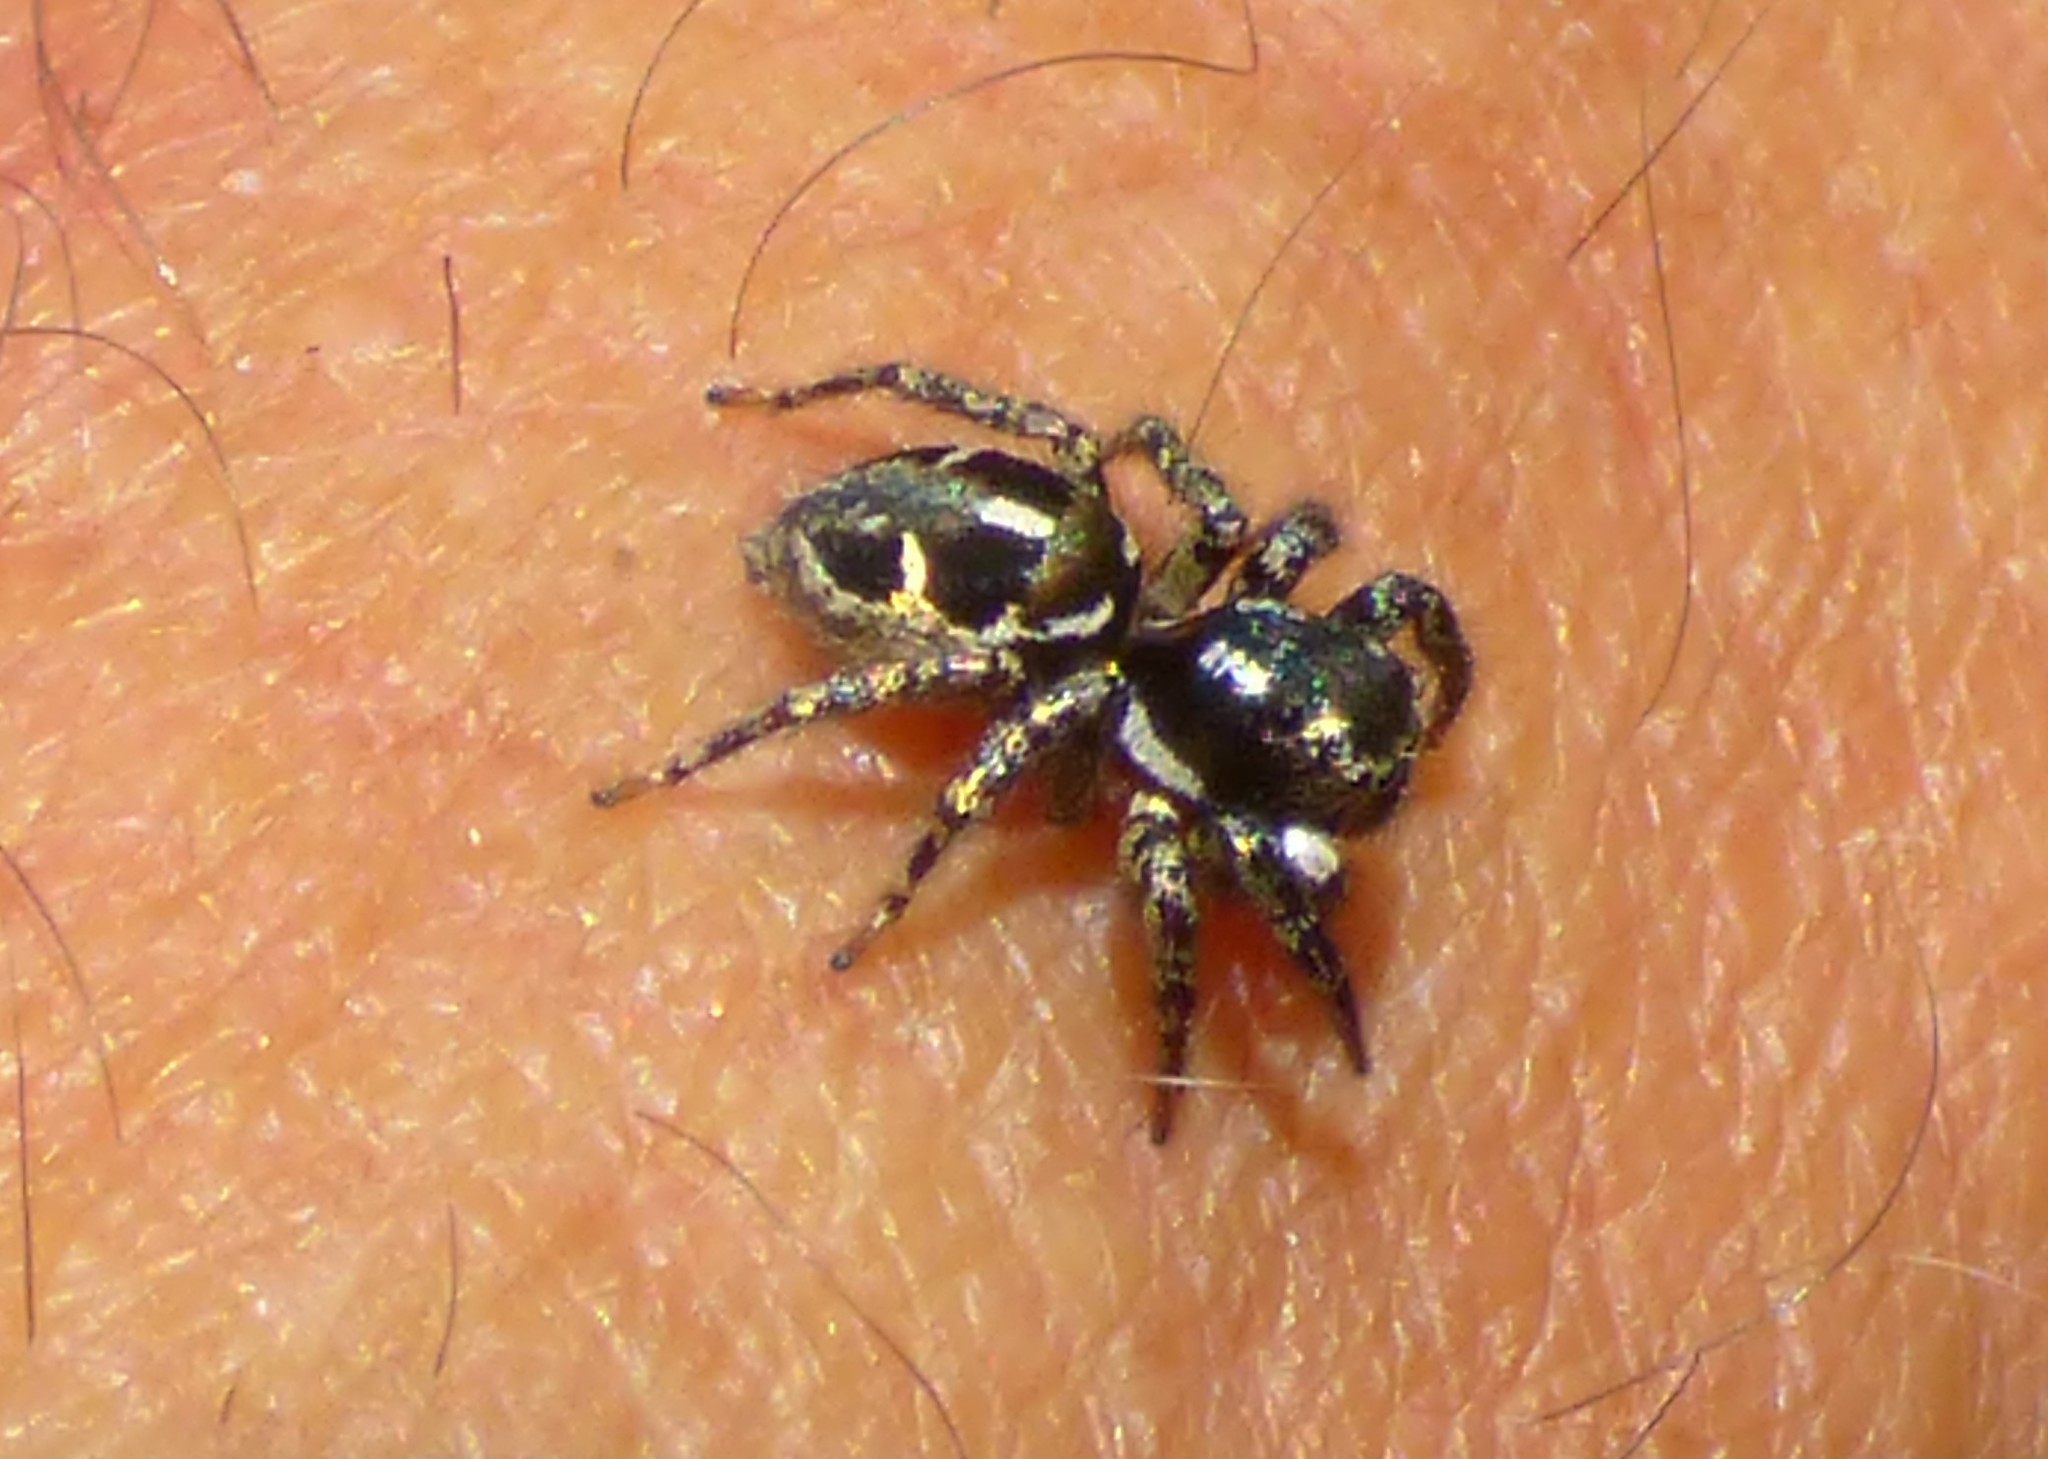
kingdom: Animalia
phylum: Arthropoda
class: Arachnida
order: Araneae
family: Salticidae
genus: Anasaitis
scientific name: Anasaitis canosa
